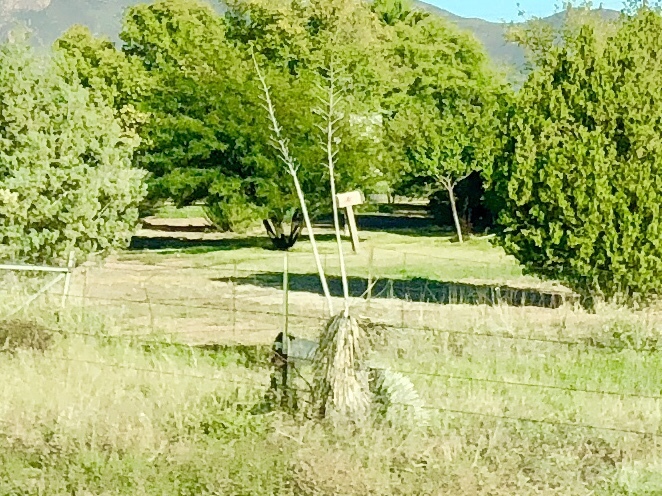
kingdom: Plantae
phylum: Tracheophyta
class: Liliopsida
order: Asparagales
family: Asparagaceae
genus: Yucca
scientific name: Yucca elata
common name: Palmella
